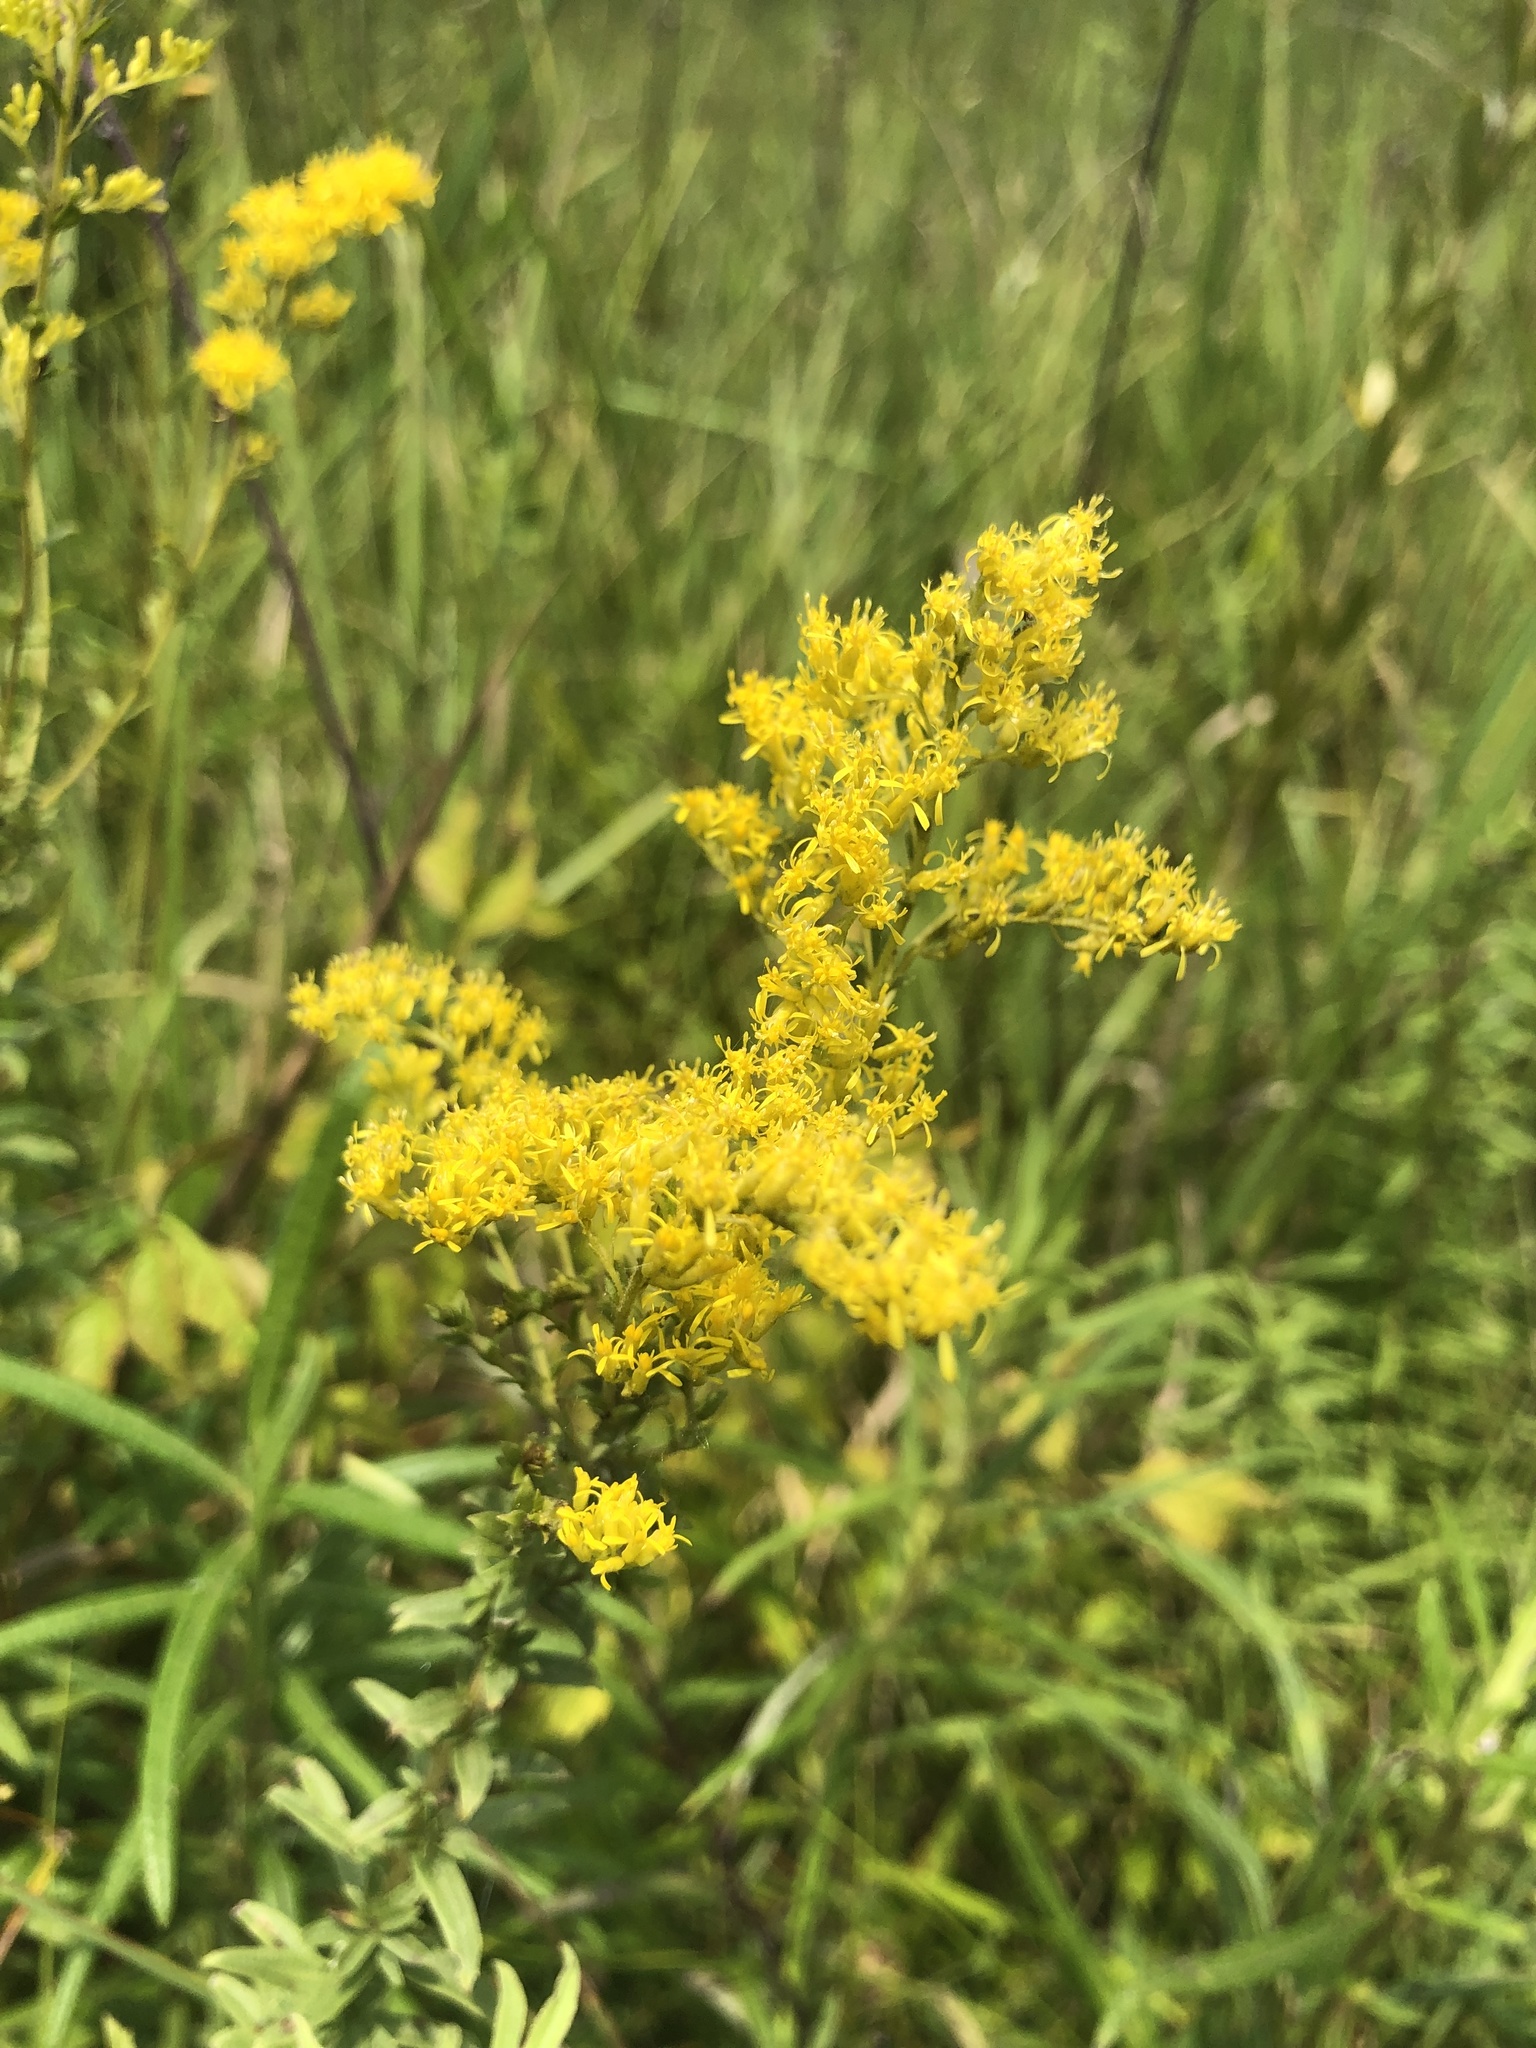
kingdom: Plantae
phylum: Tracheophyta
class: Magnoliopsida
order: Asterales
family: Asteraceae
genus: Solidago
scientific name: Solidago tortifolia
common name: Twisted-leaf goldenrod
